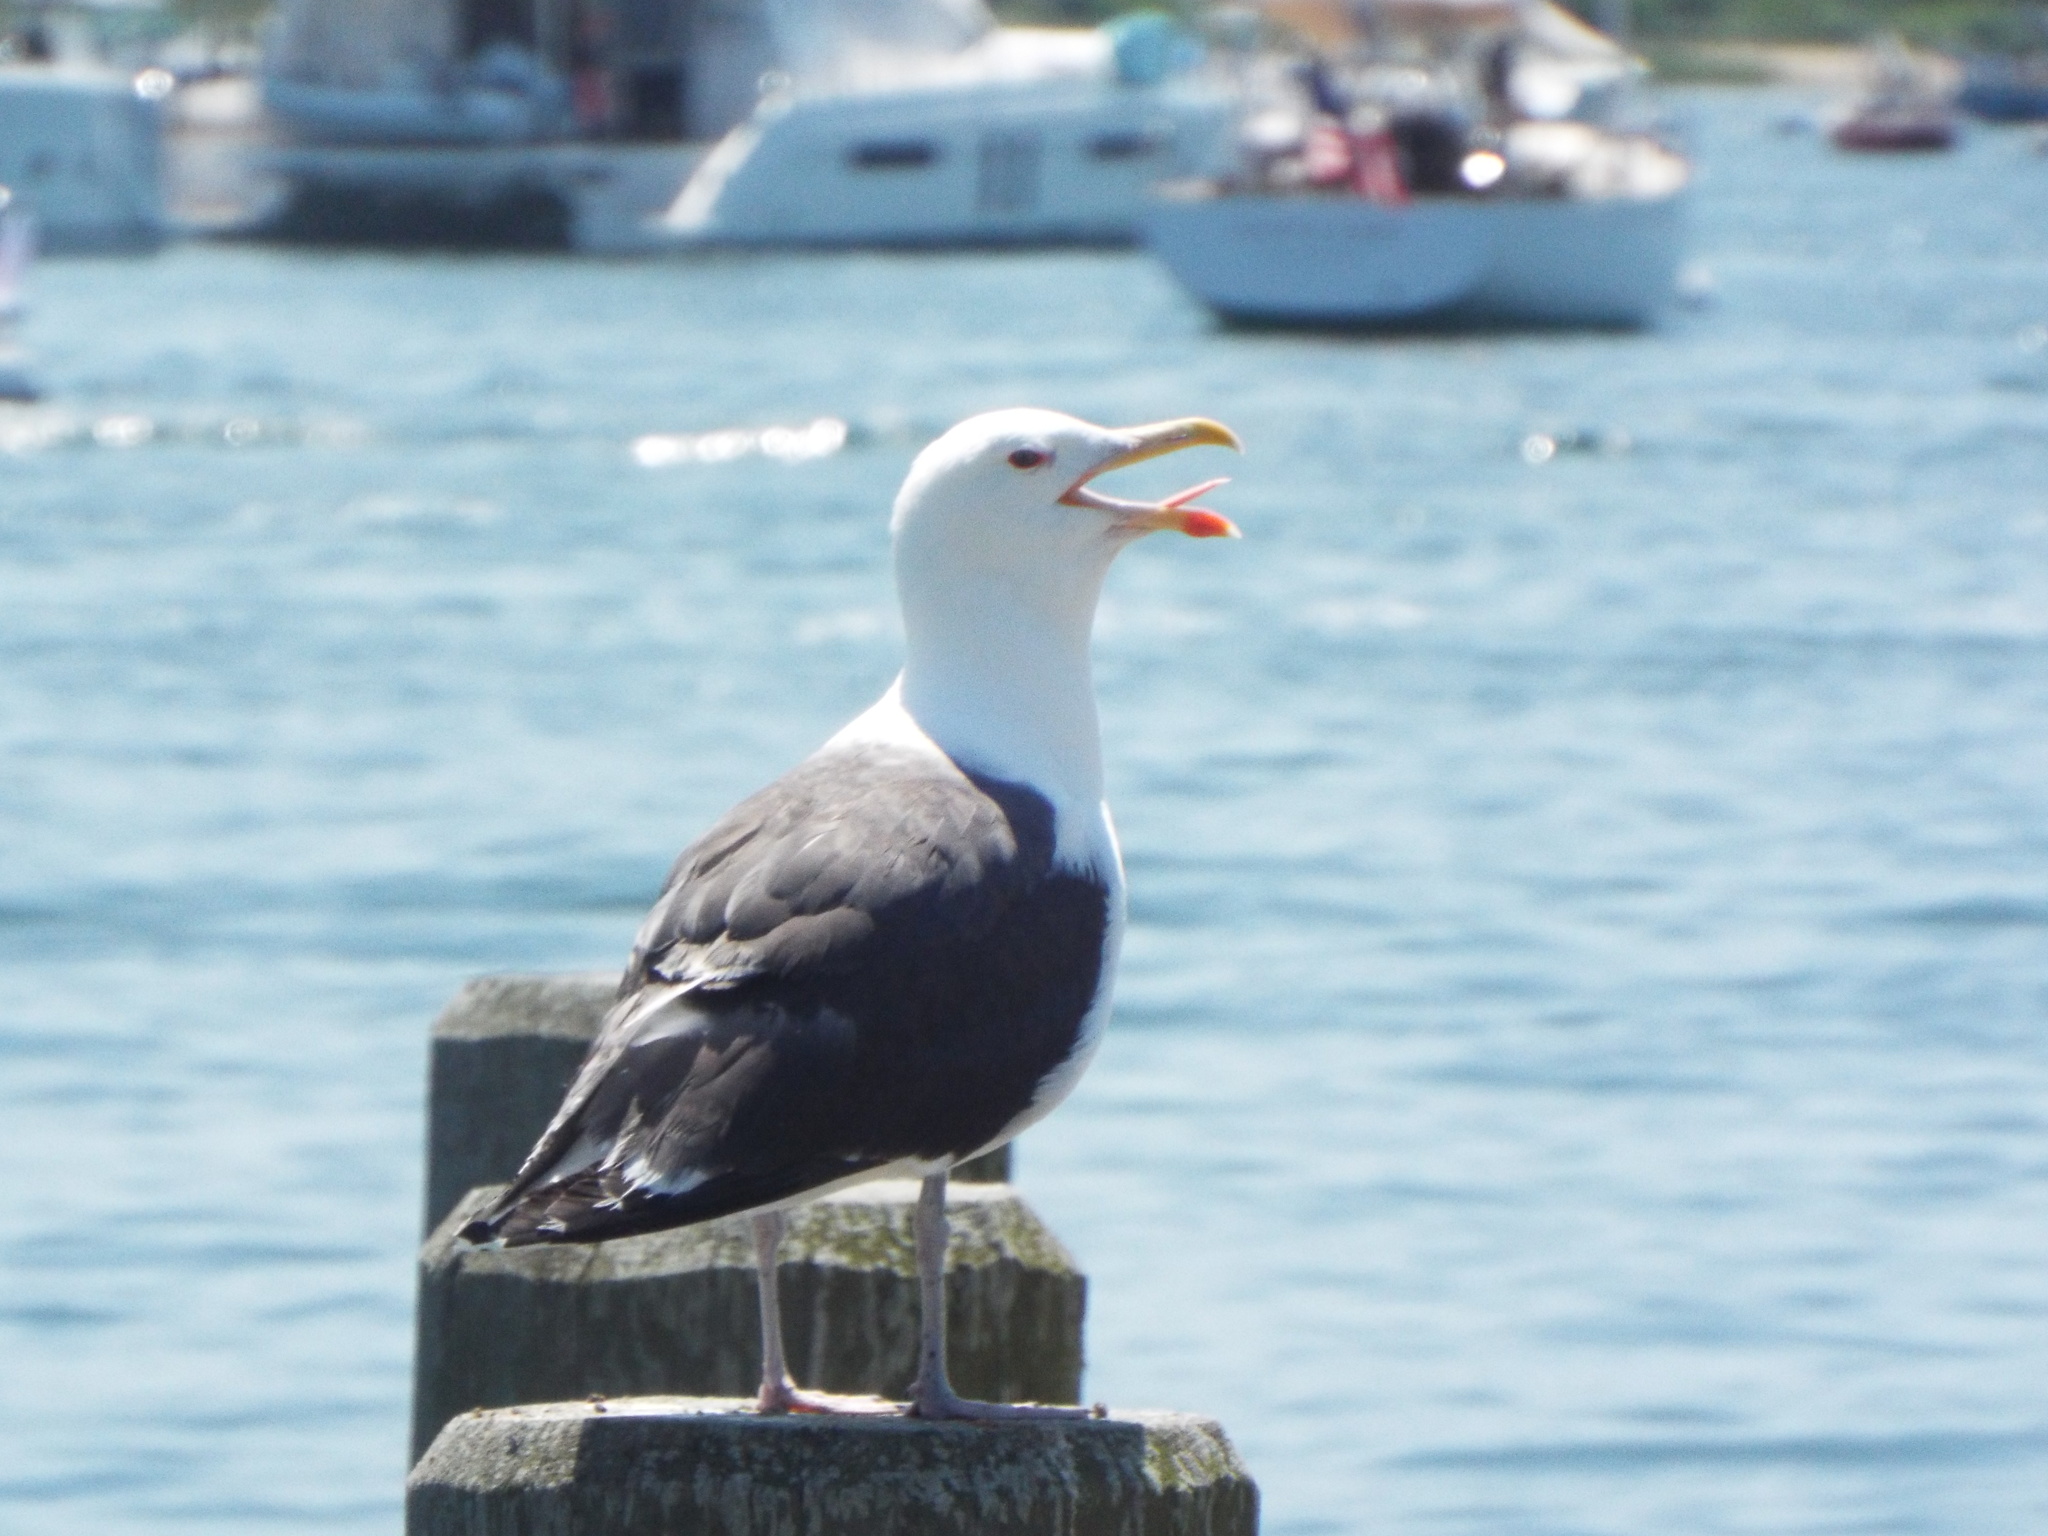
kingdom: Animalia
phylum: Chordata
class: Aves
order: Charadriiformes
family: Laridae
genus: Larus
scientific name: Larus marinus
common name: Great black-backed gull
